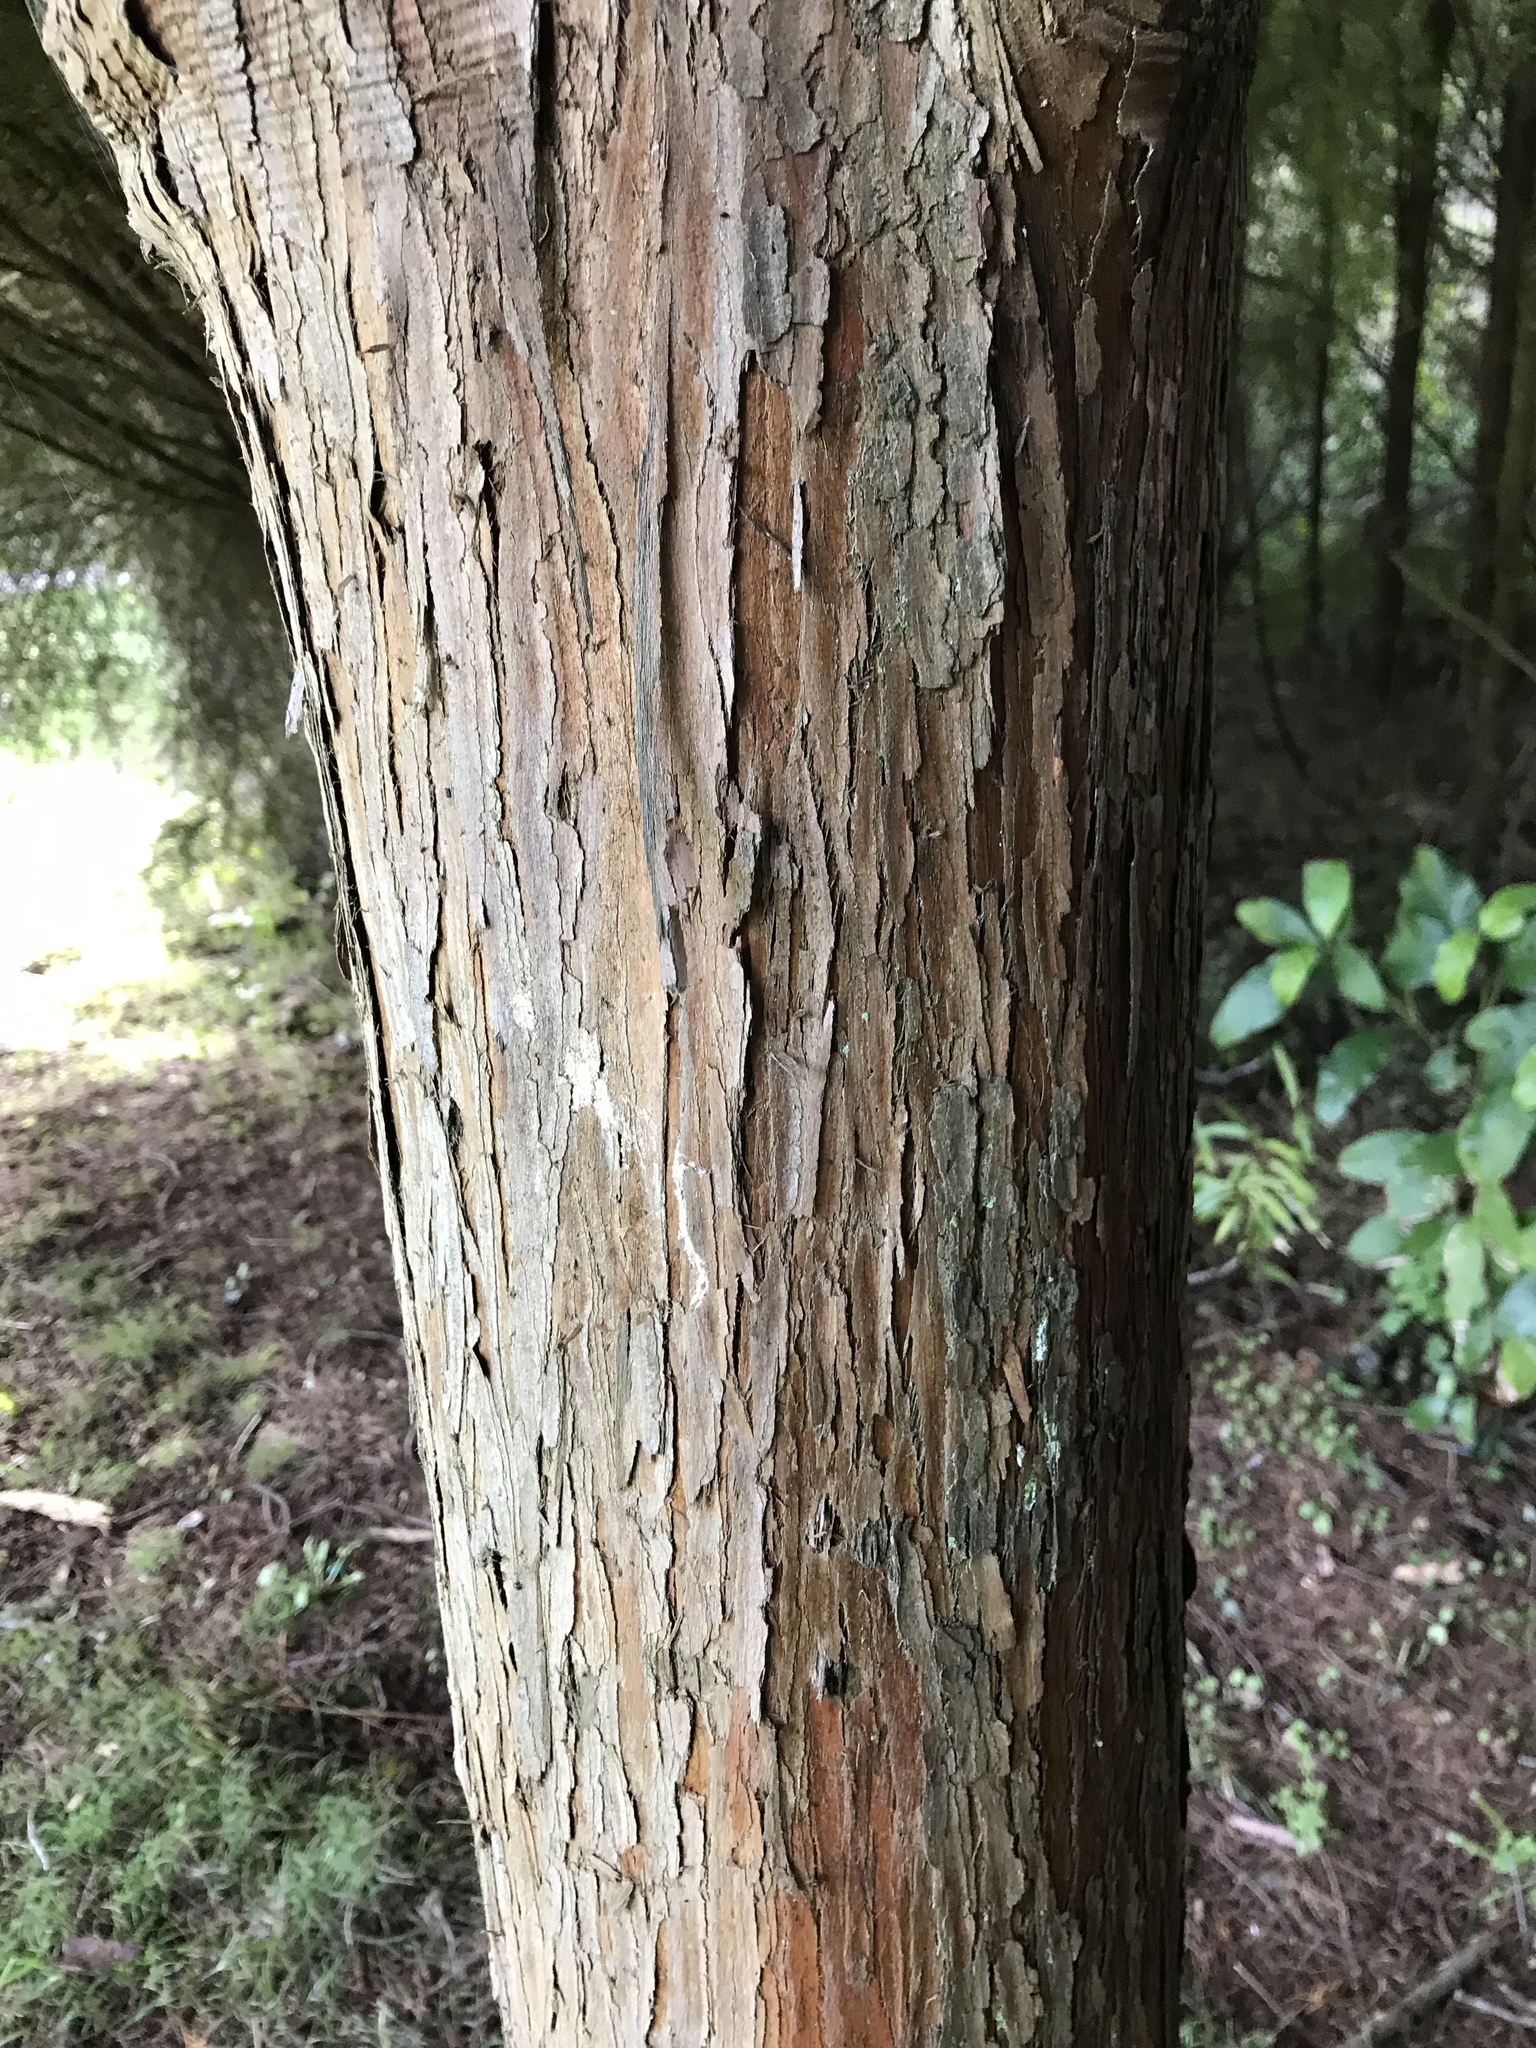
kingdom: Plantae
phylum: Tracheophyta
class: Pinopsida
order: Pinales
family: Podocarpaceae
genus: Podocarpus
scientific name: Podocarpus totara
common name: Totara
